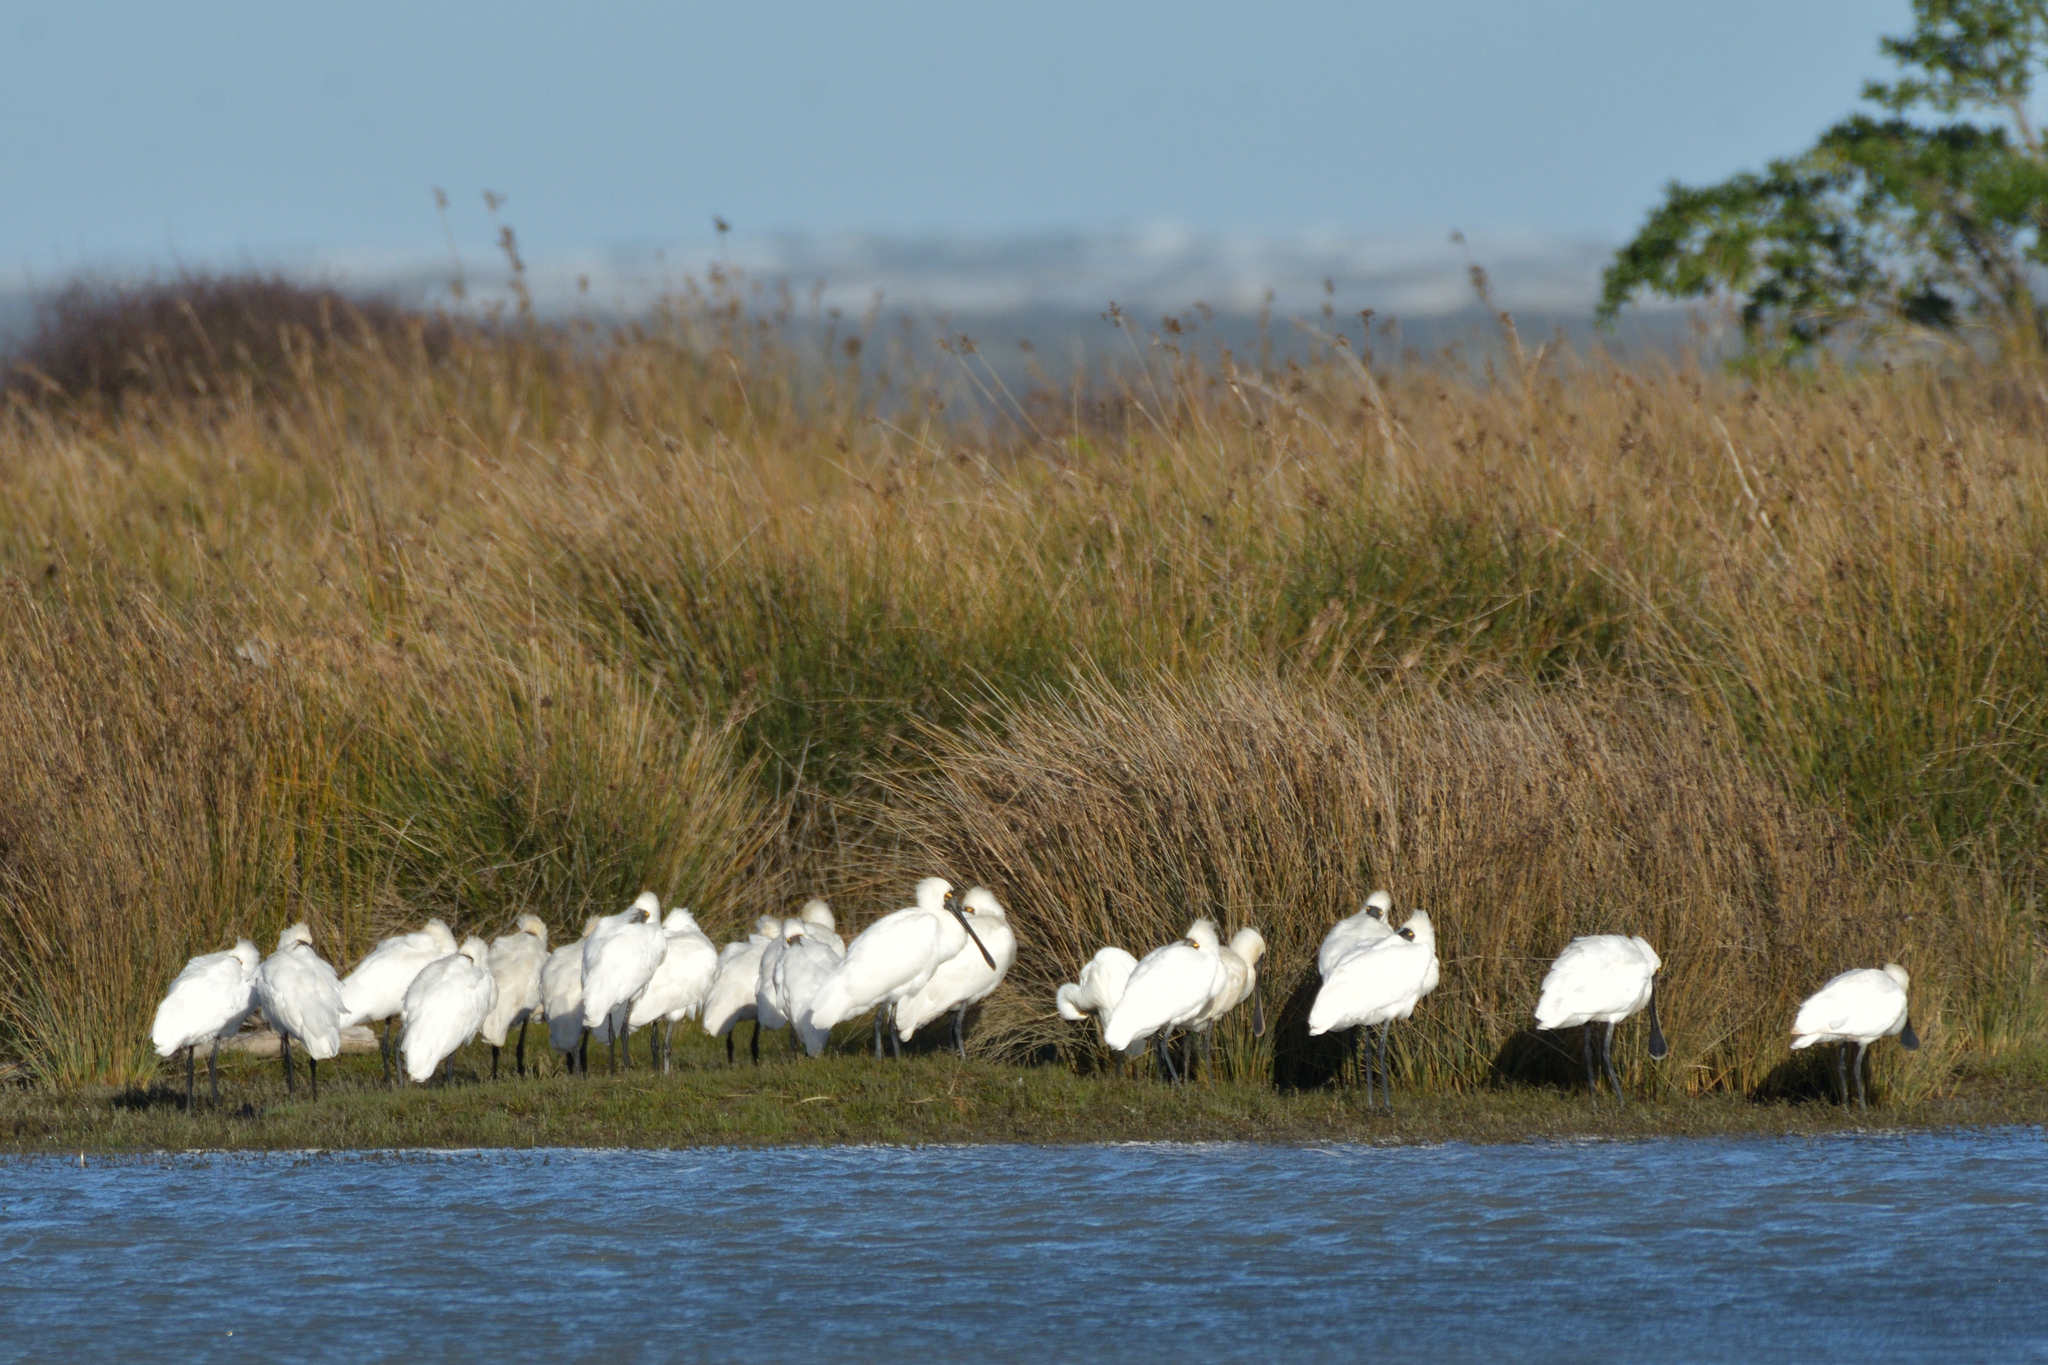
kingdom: Animalia
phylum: Chordata
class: Aves
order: Pelecaniformes
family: Threskiornithidae
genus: Platalea
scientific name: Platalea regia
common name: Royal spoonbill
